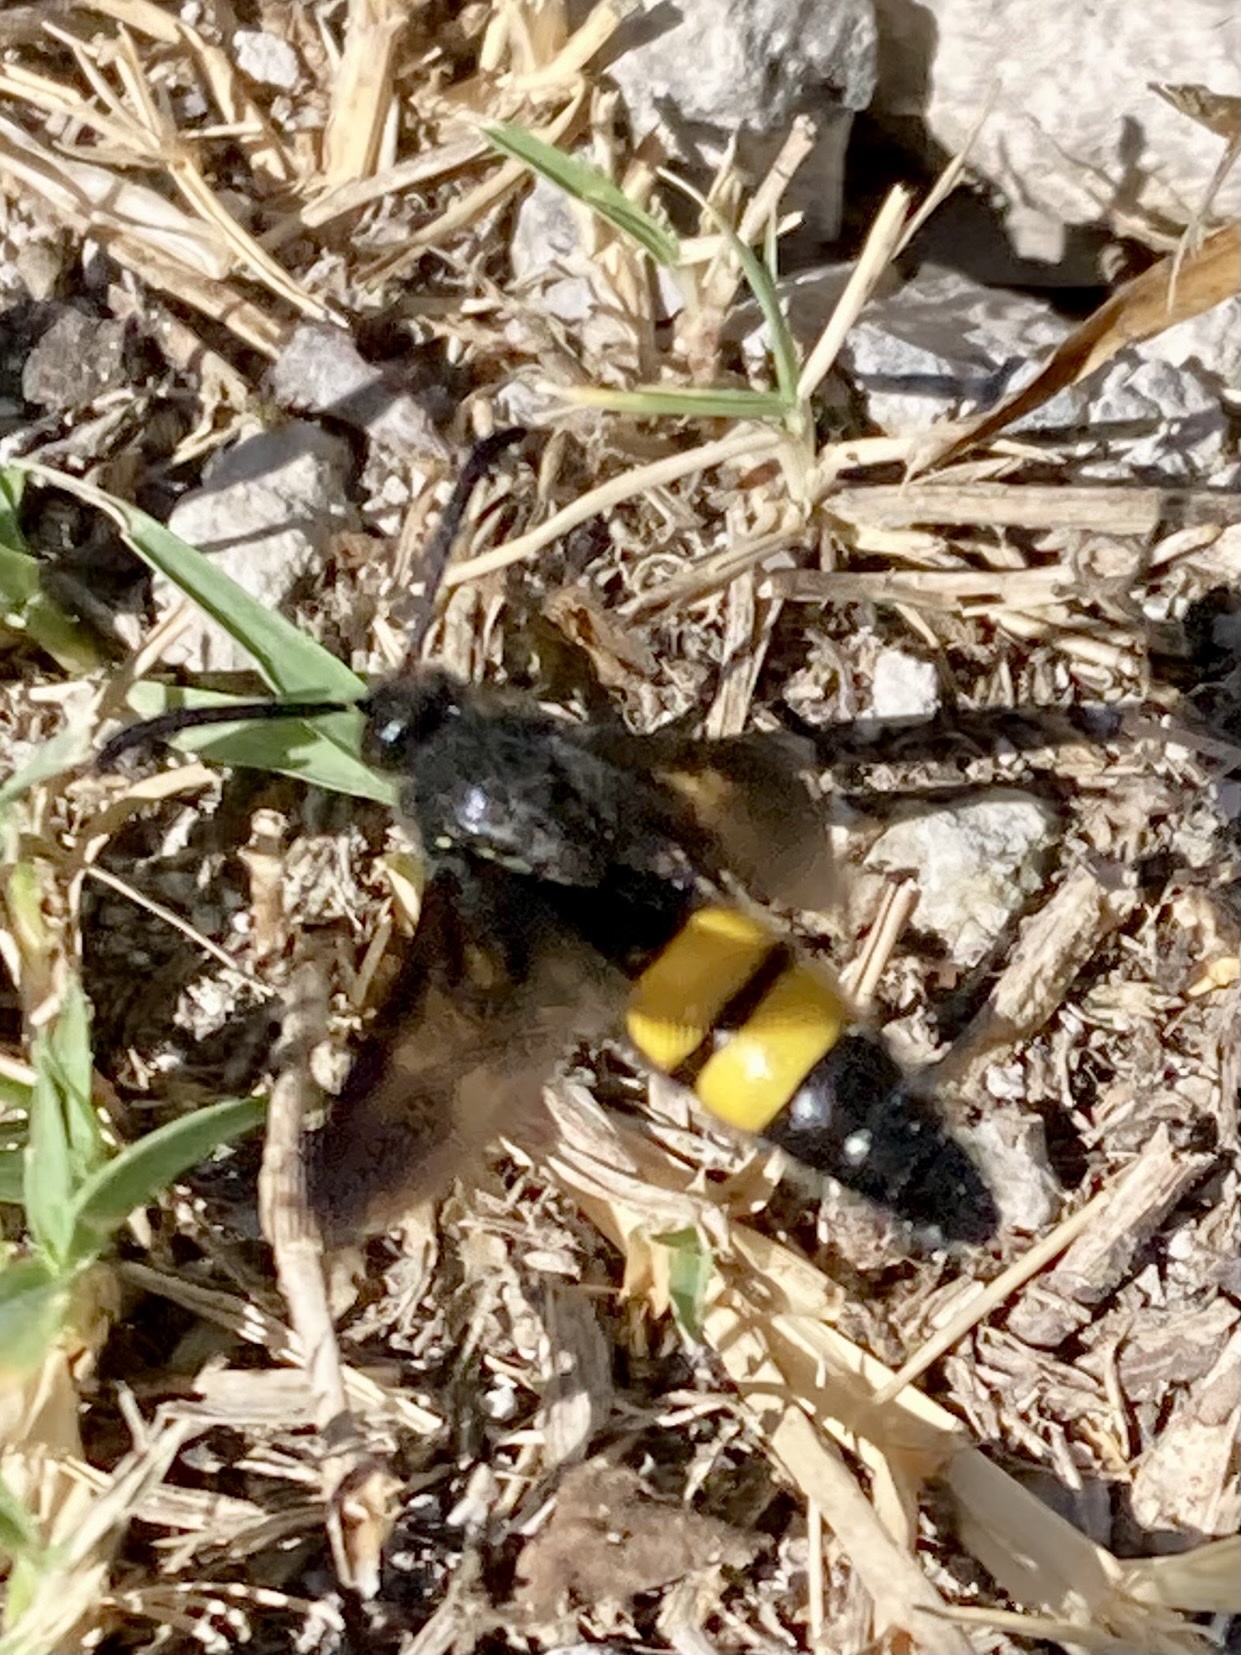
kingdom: Animalia
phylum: Arthropoda
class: Insecta
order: Hymenoptera
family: Scoliidae
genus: Scolia
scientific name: Scolia hirta
